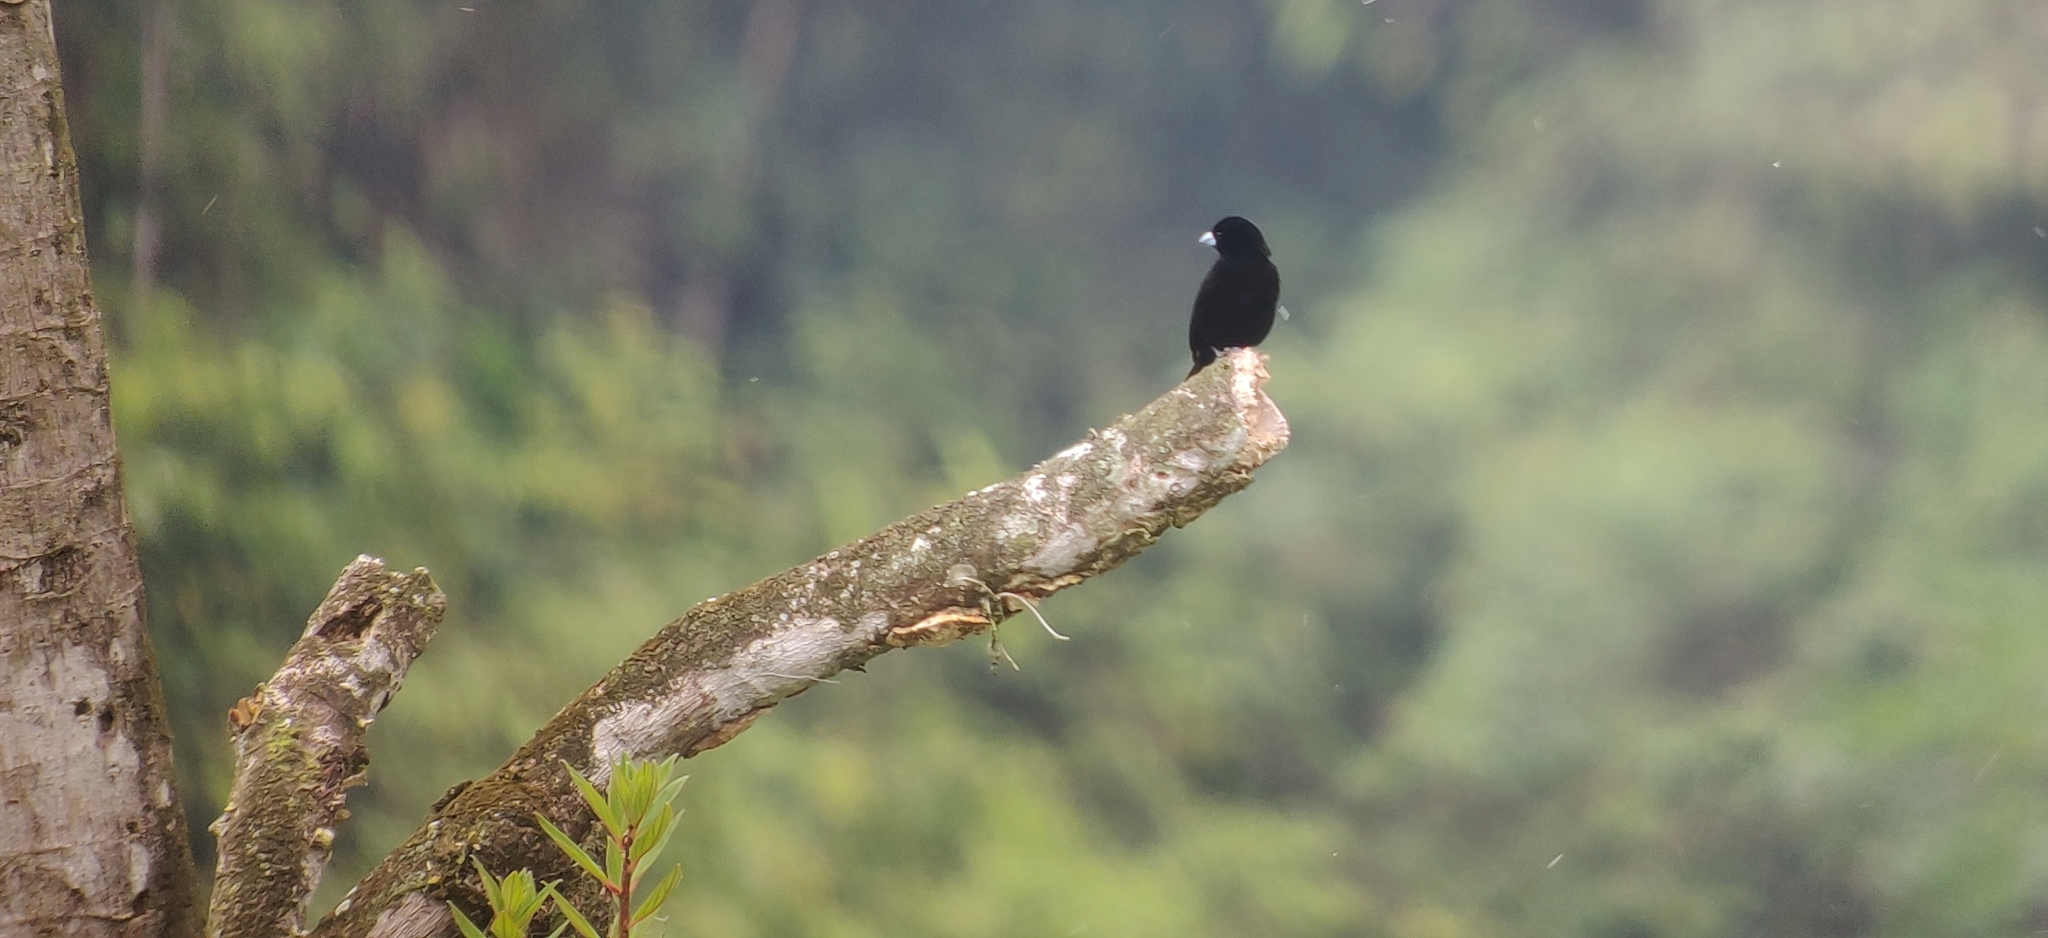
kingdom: Animalia
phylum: Chordata
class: Aves
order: Passeriformes
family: Thraupidae
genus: Ramphocelus
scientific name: Ramphocelus flammigerus
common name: Flame-rumped tanager
